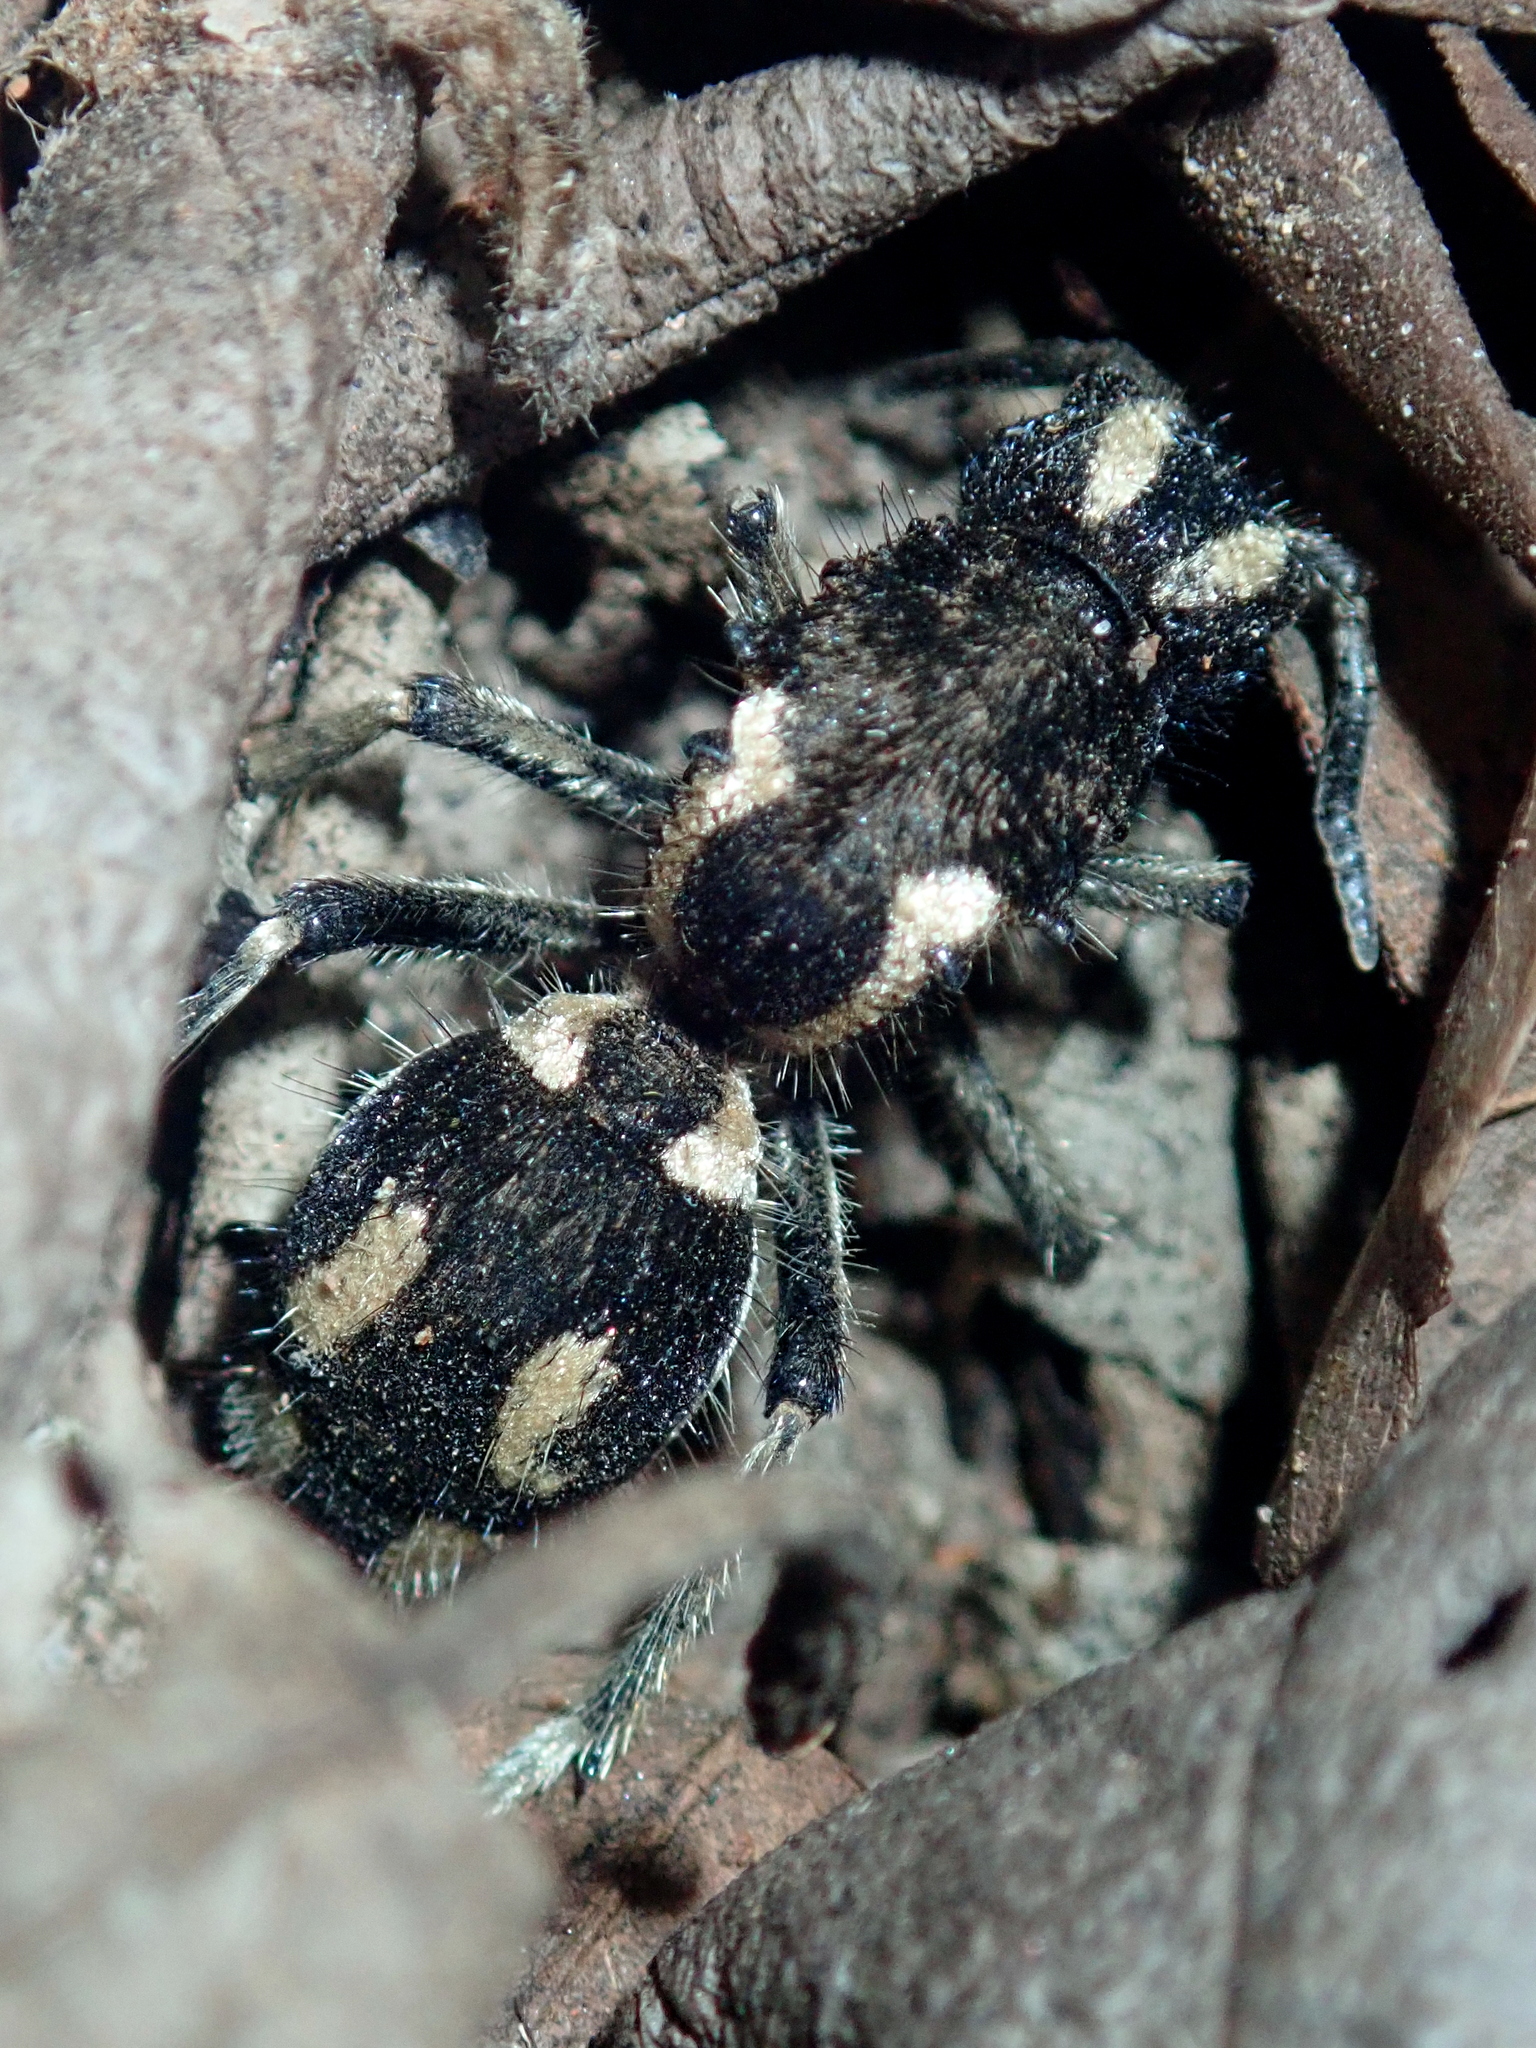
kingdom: Animalia
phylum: Arthropoda
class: Insecta
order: Hymenoptera
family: Mutillidae
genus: Hoplomutilla
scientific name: Hoplomutilla
